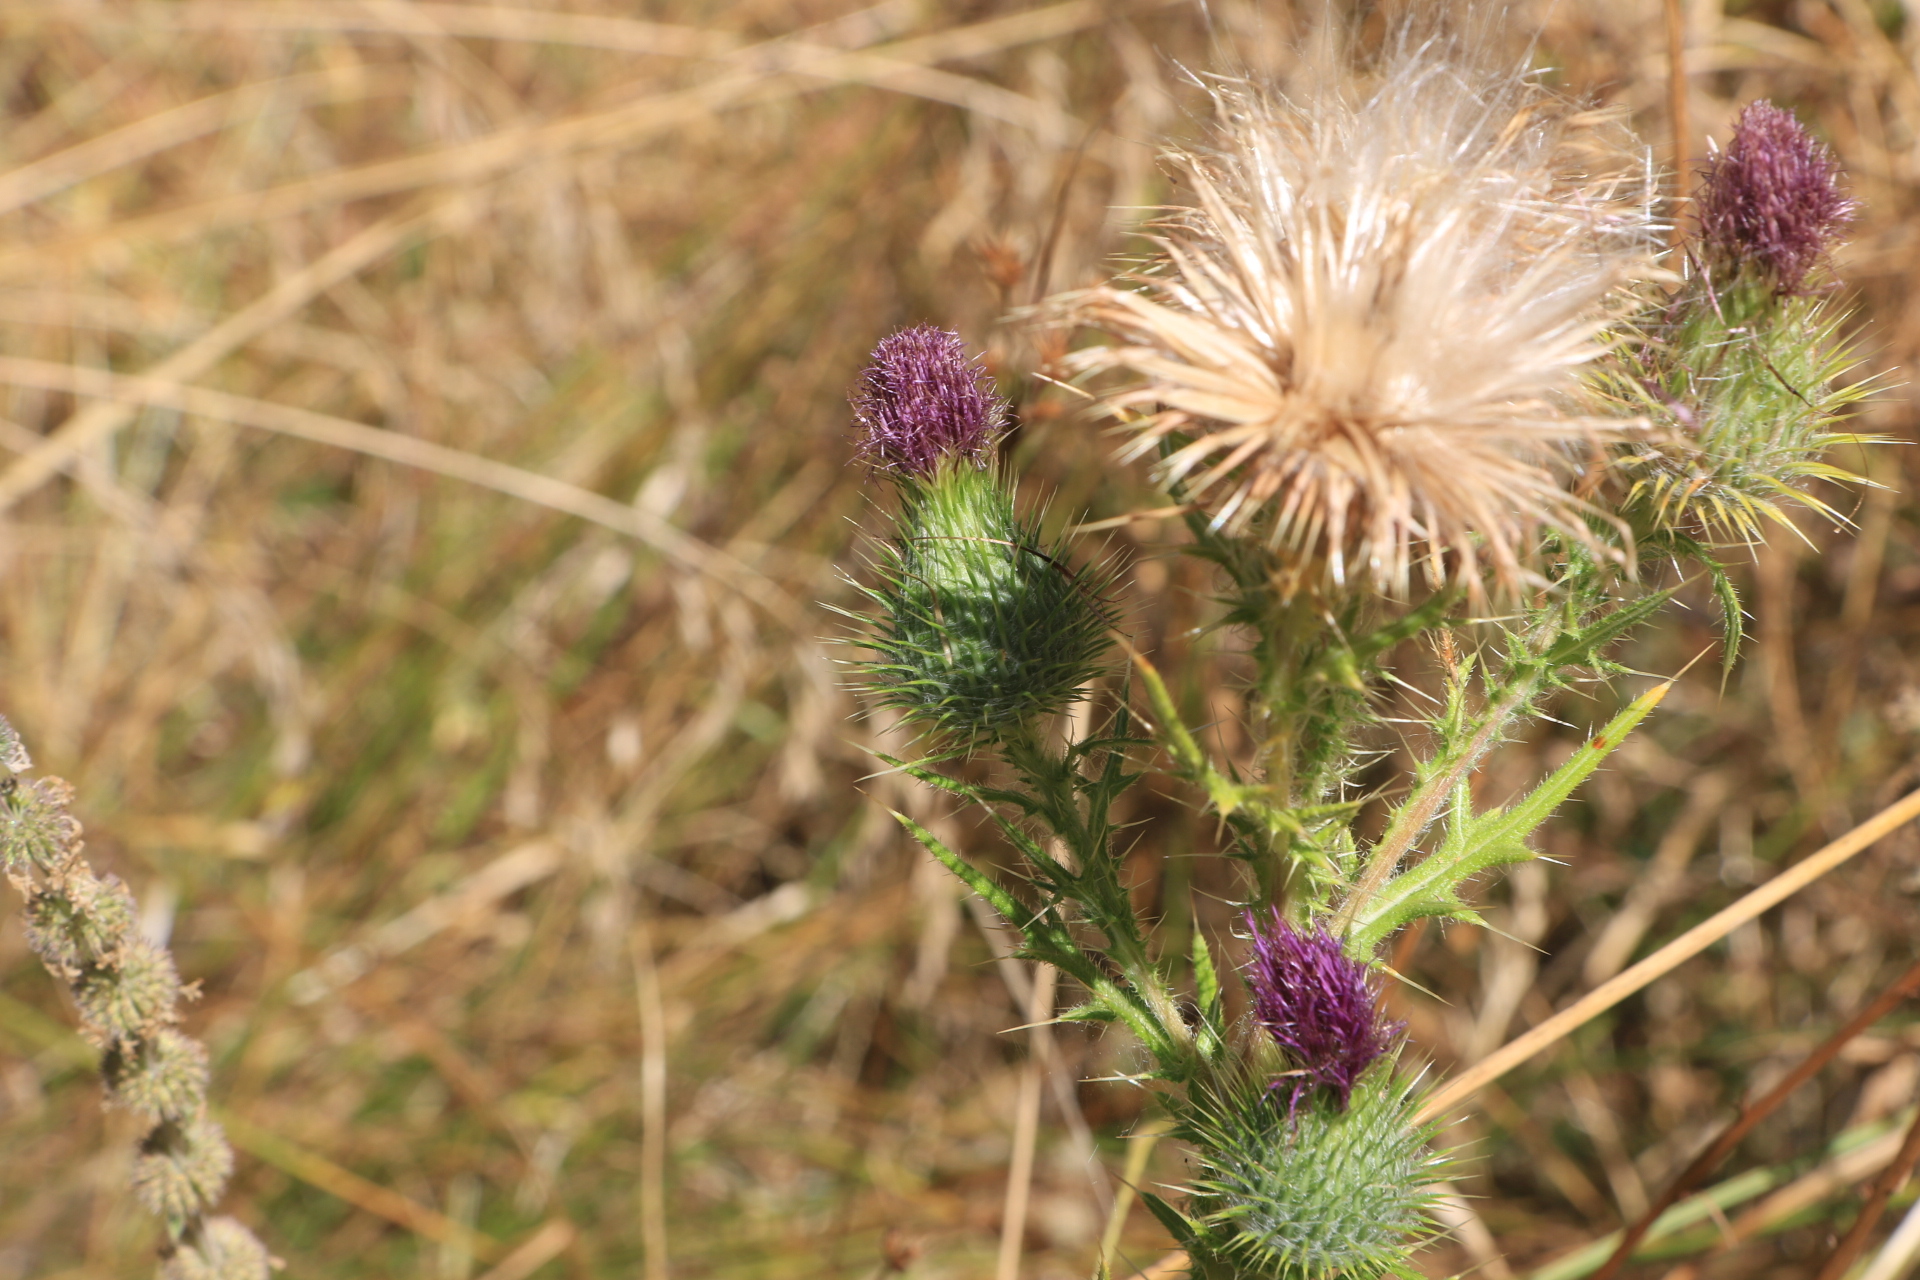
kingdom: Plantae
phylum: Tracheophyta
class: Magnoliopsida
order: Asterales
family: Asteraceae
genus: Cirsium
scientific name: Cirsium vulgare
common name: Bull thistle
